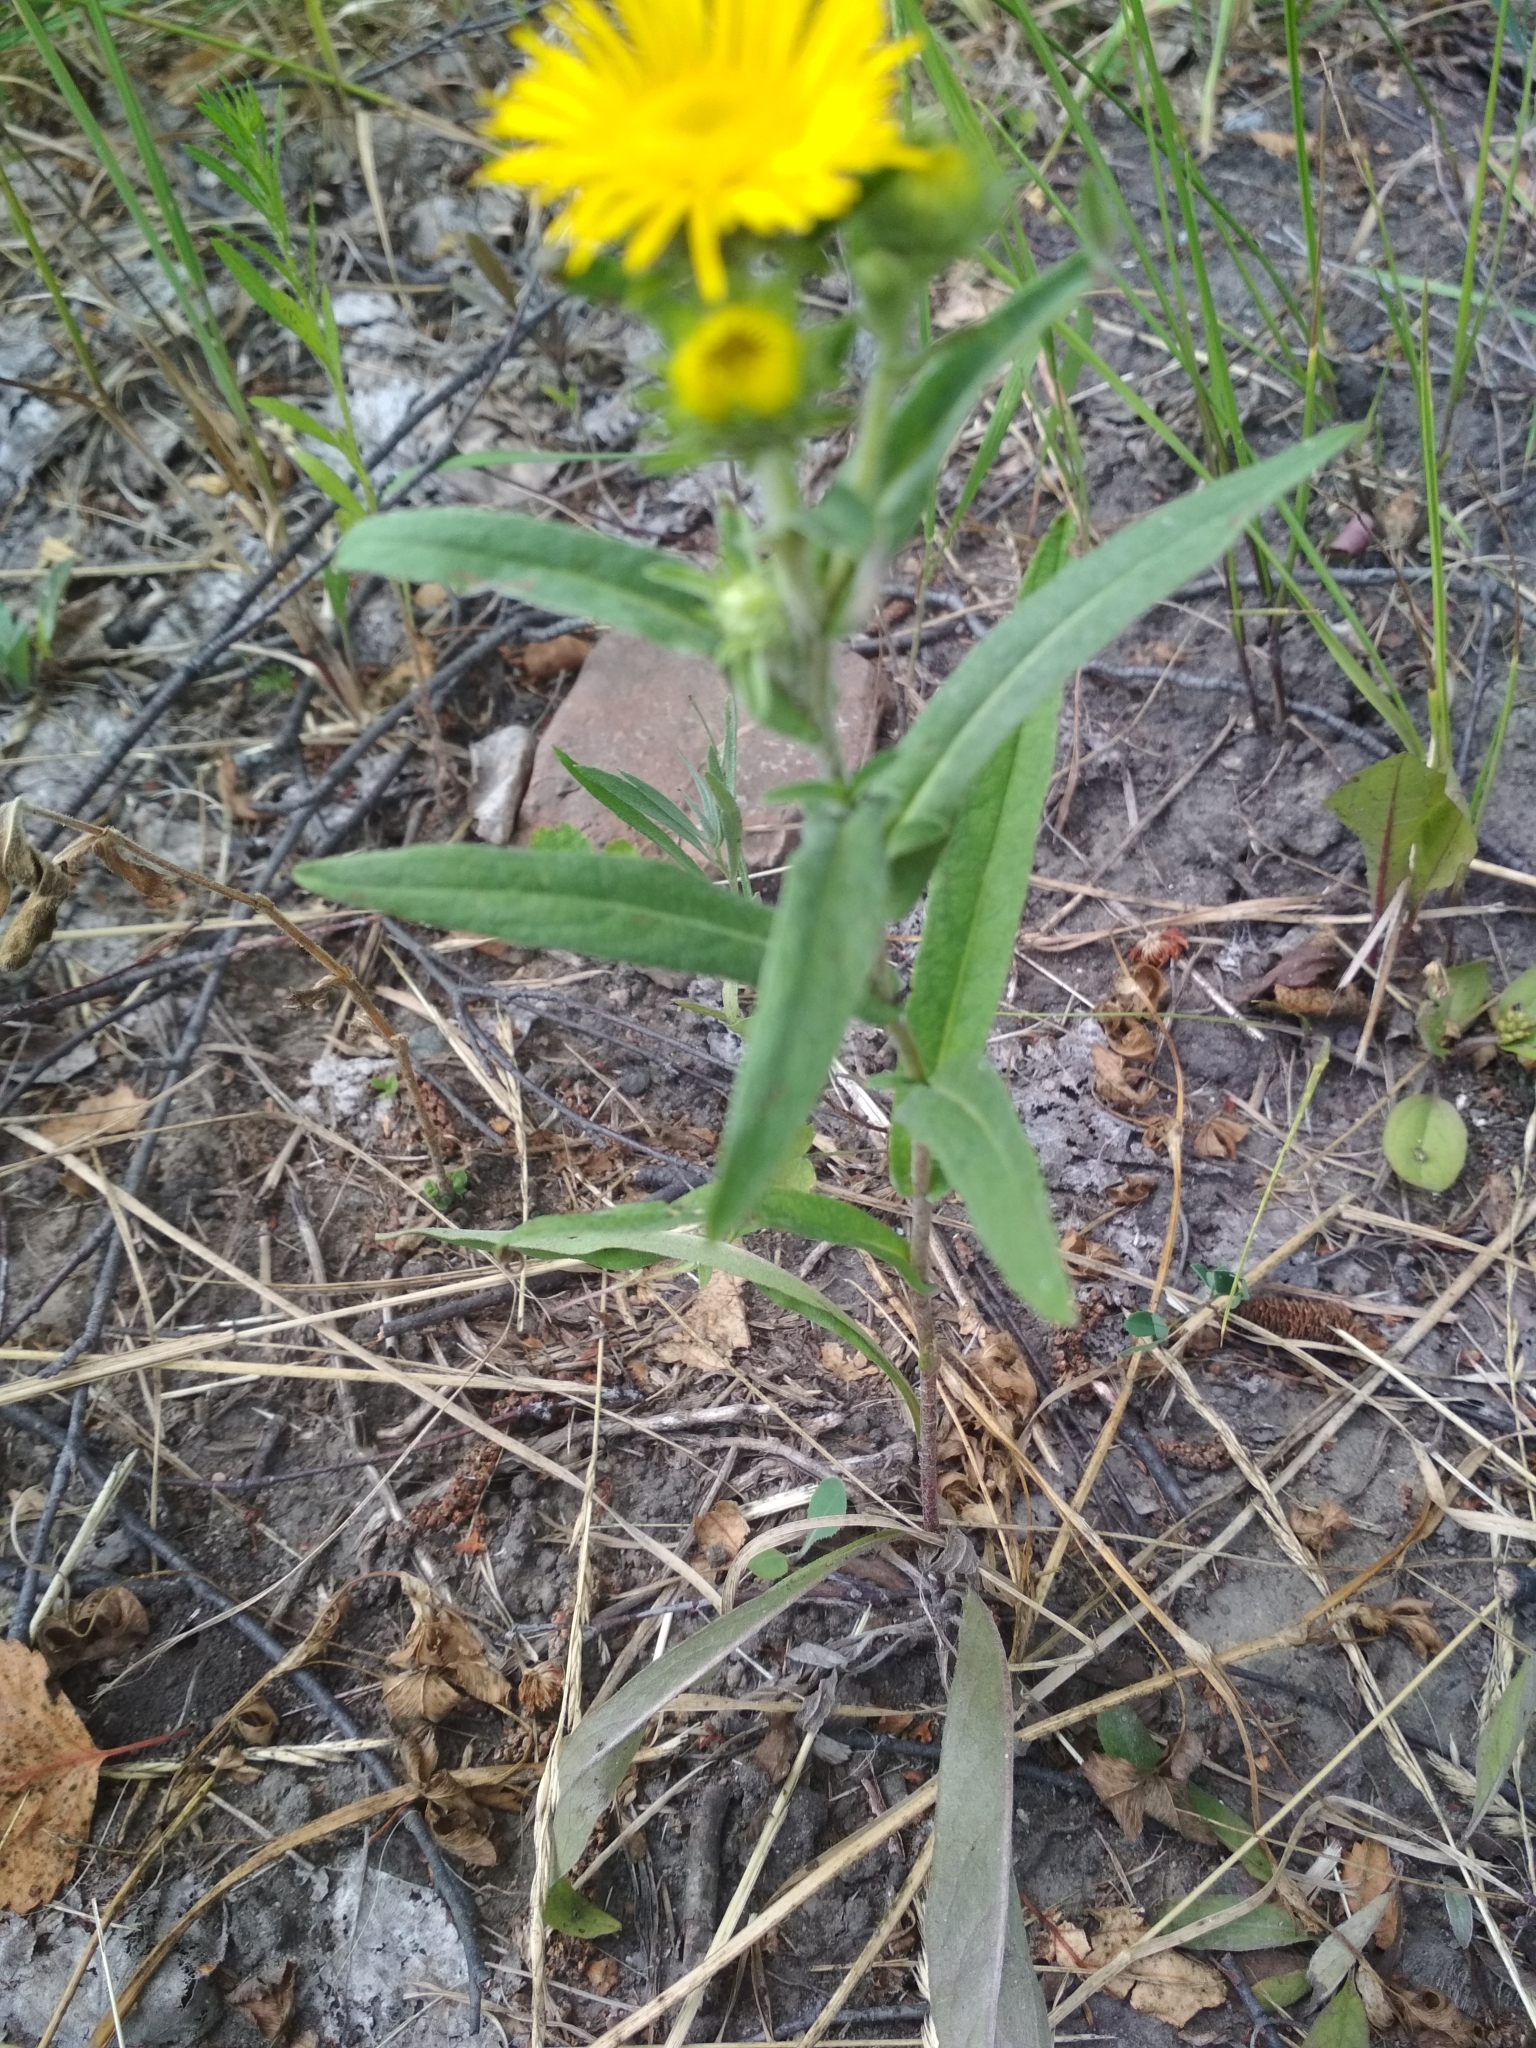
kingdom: Plantae
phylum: Tracheophyta
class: Magnoliopsida
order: Asterales
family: Asteraceae
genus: Pentanema
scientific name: Pentanema britannicum
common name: British elecampane
